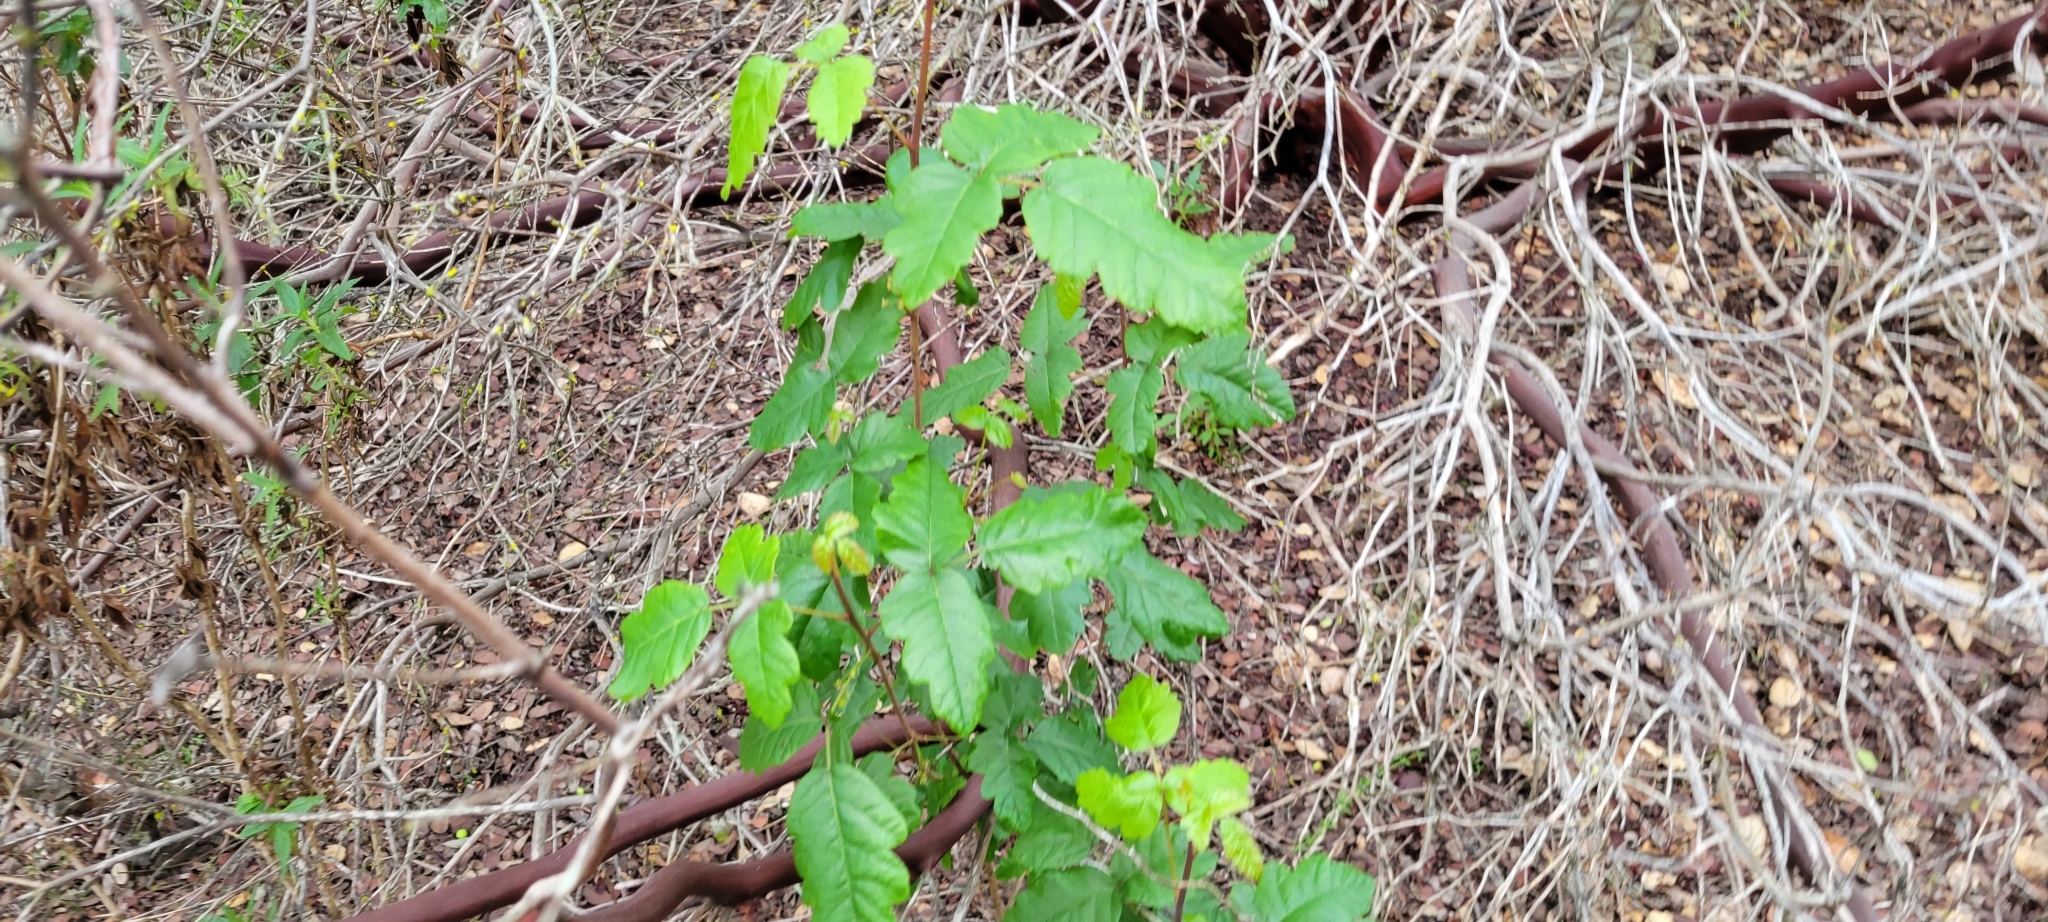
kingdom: Plantae
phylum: Tracheophyta
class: Magnoliopsida
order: Sapindales
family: Anacardiaceae
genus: Toxicodendron
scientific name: Toxicodendron diversilobum
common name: Pacific poison-oak
